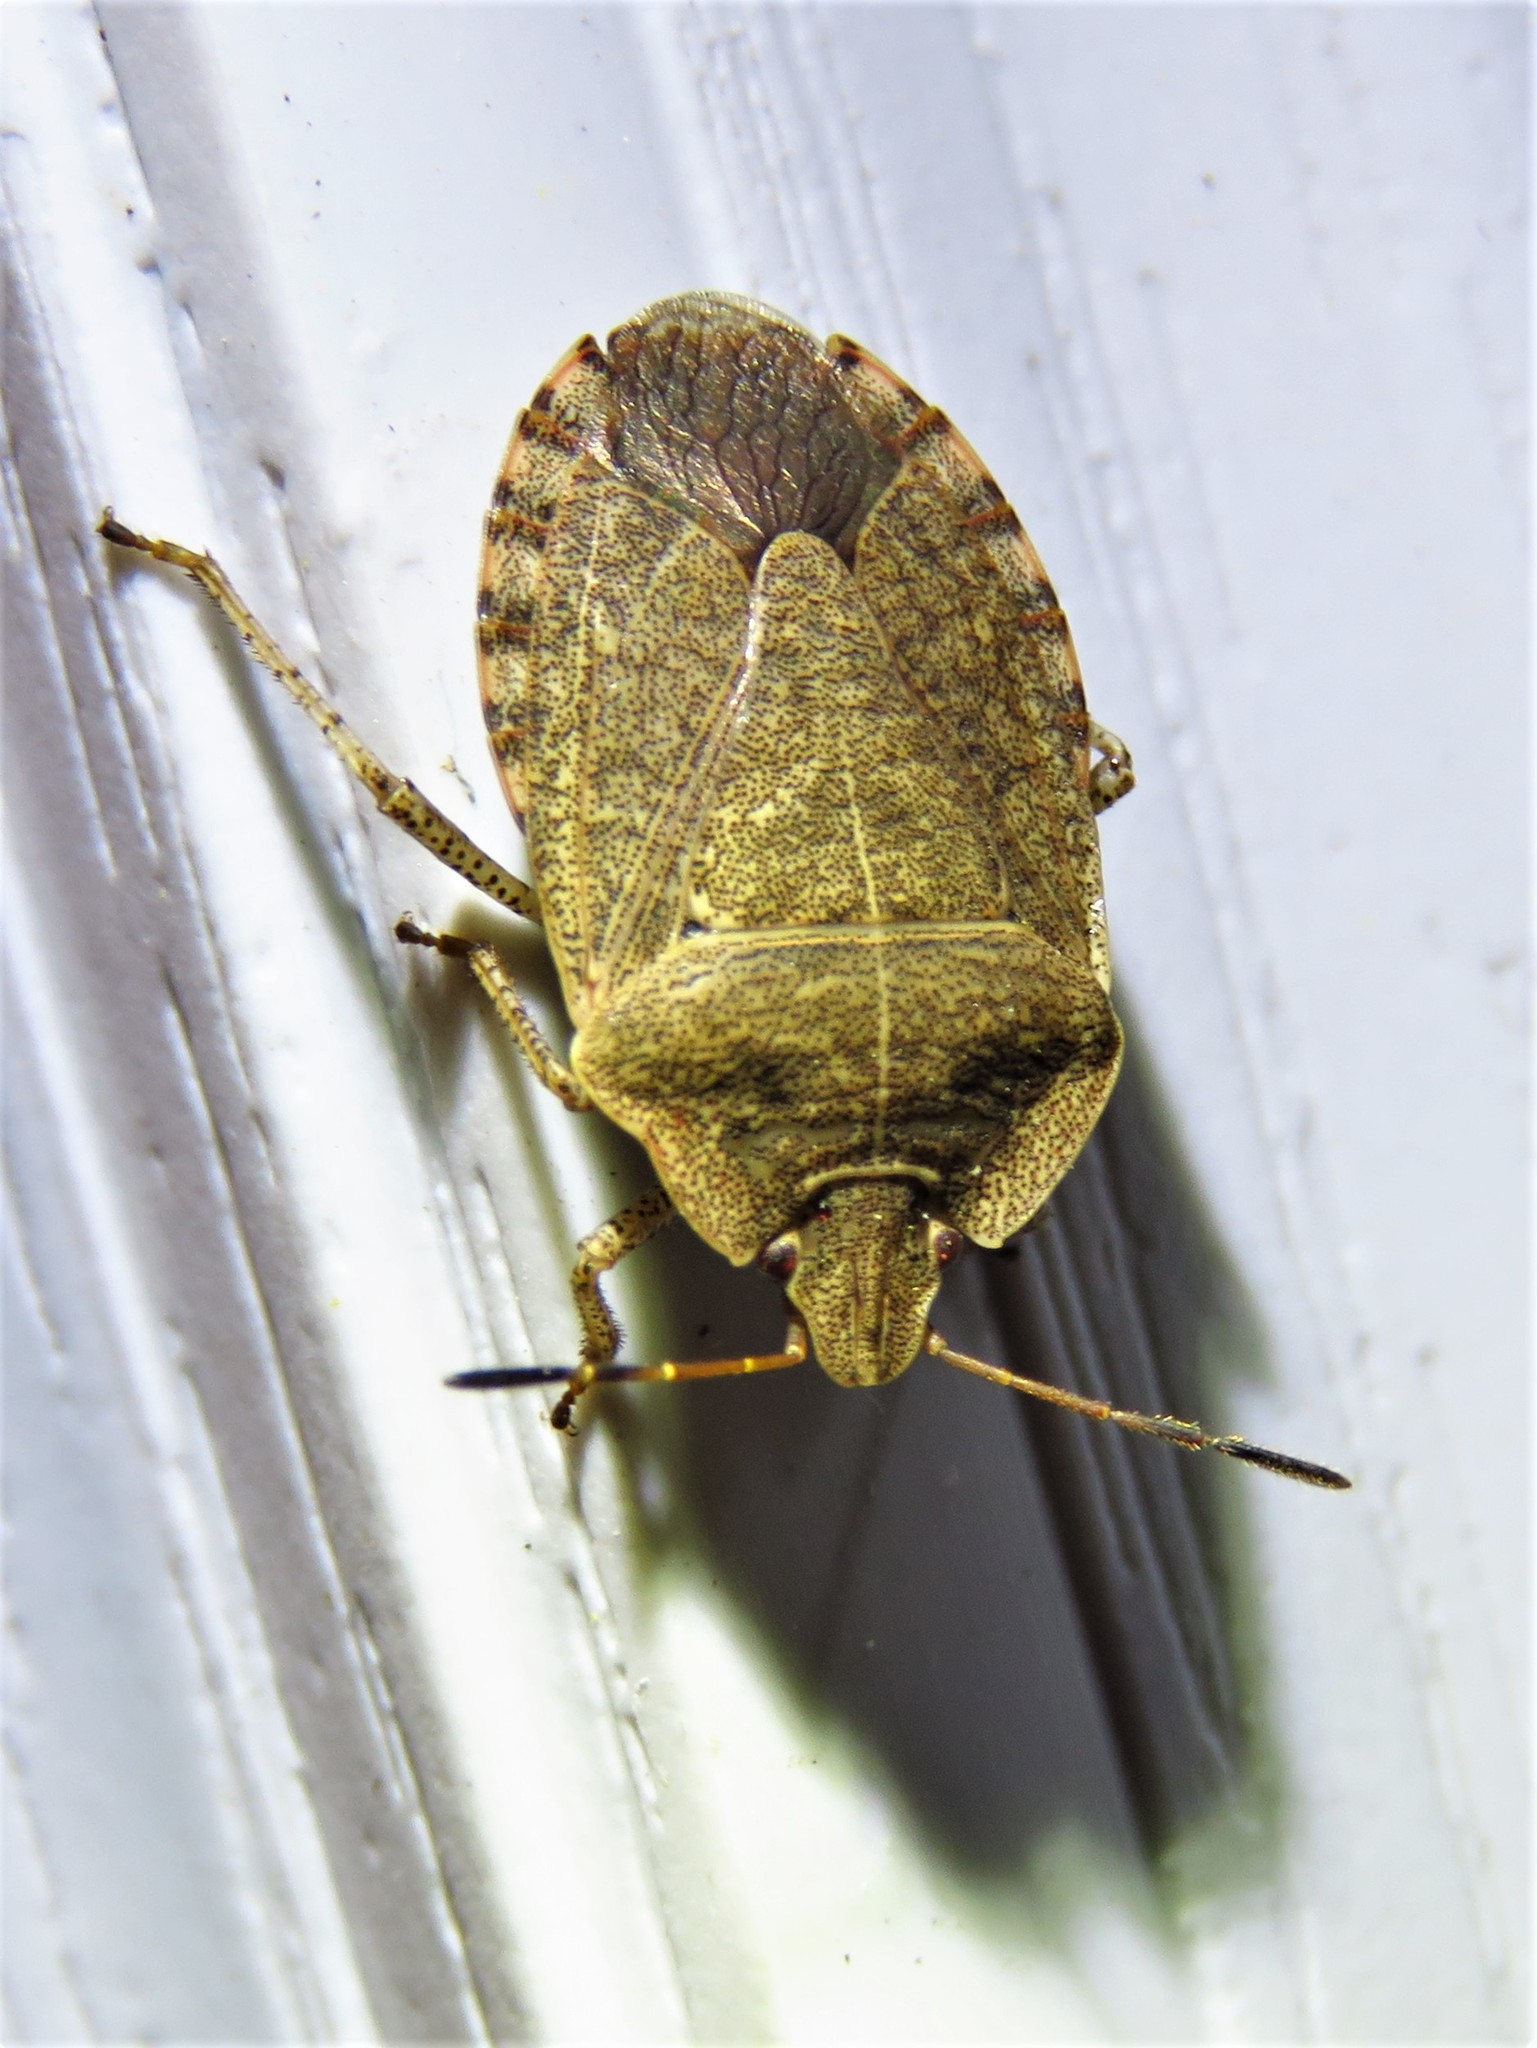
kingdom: Animalia
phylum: Arthropoda
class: Insecta
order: Hemiptera
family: Pentatomidae
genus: Menecles
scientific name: Menecles insertus
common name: Elf shoe stink bug
